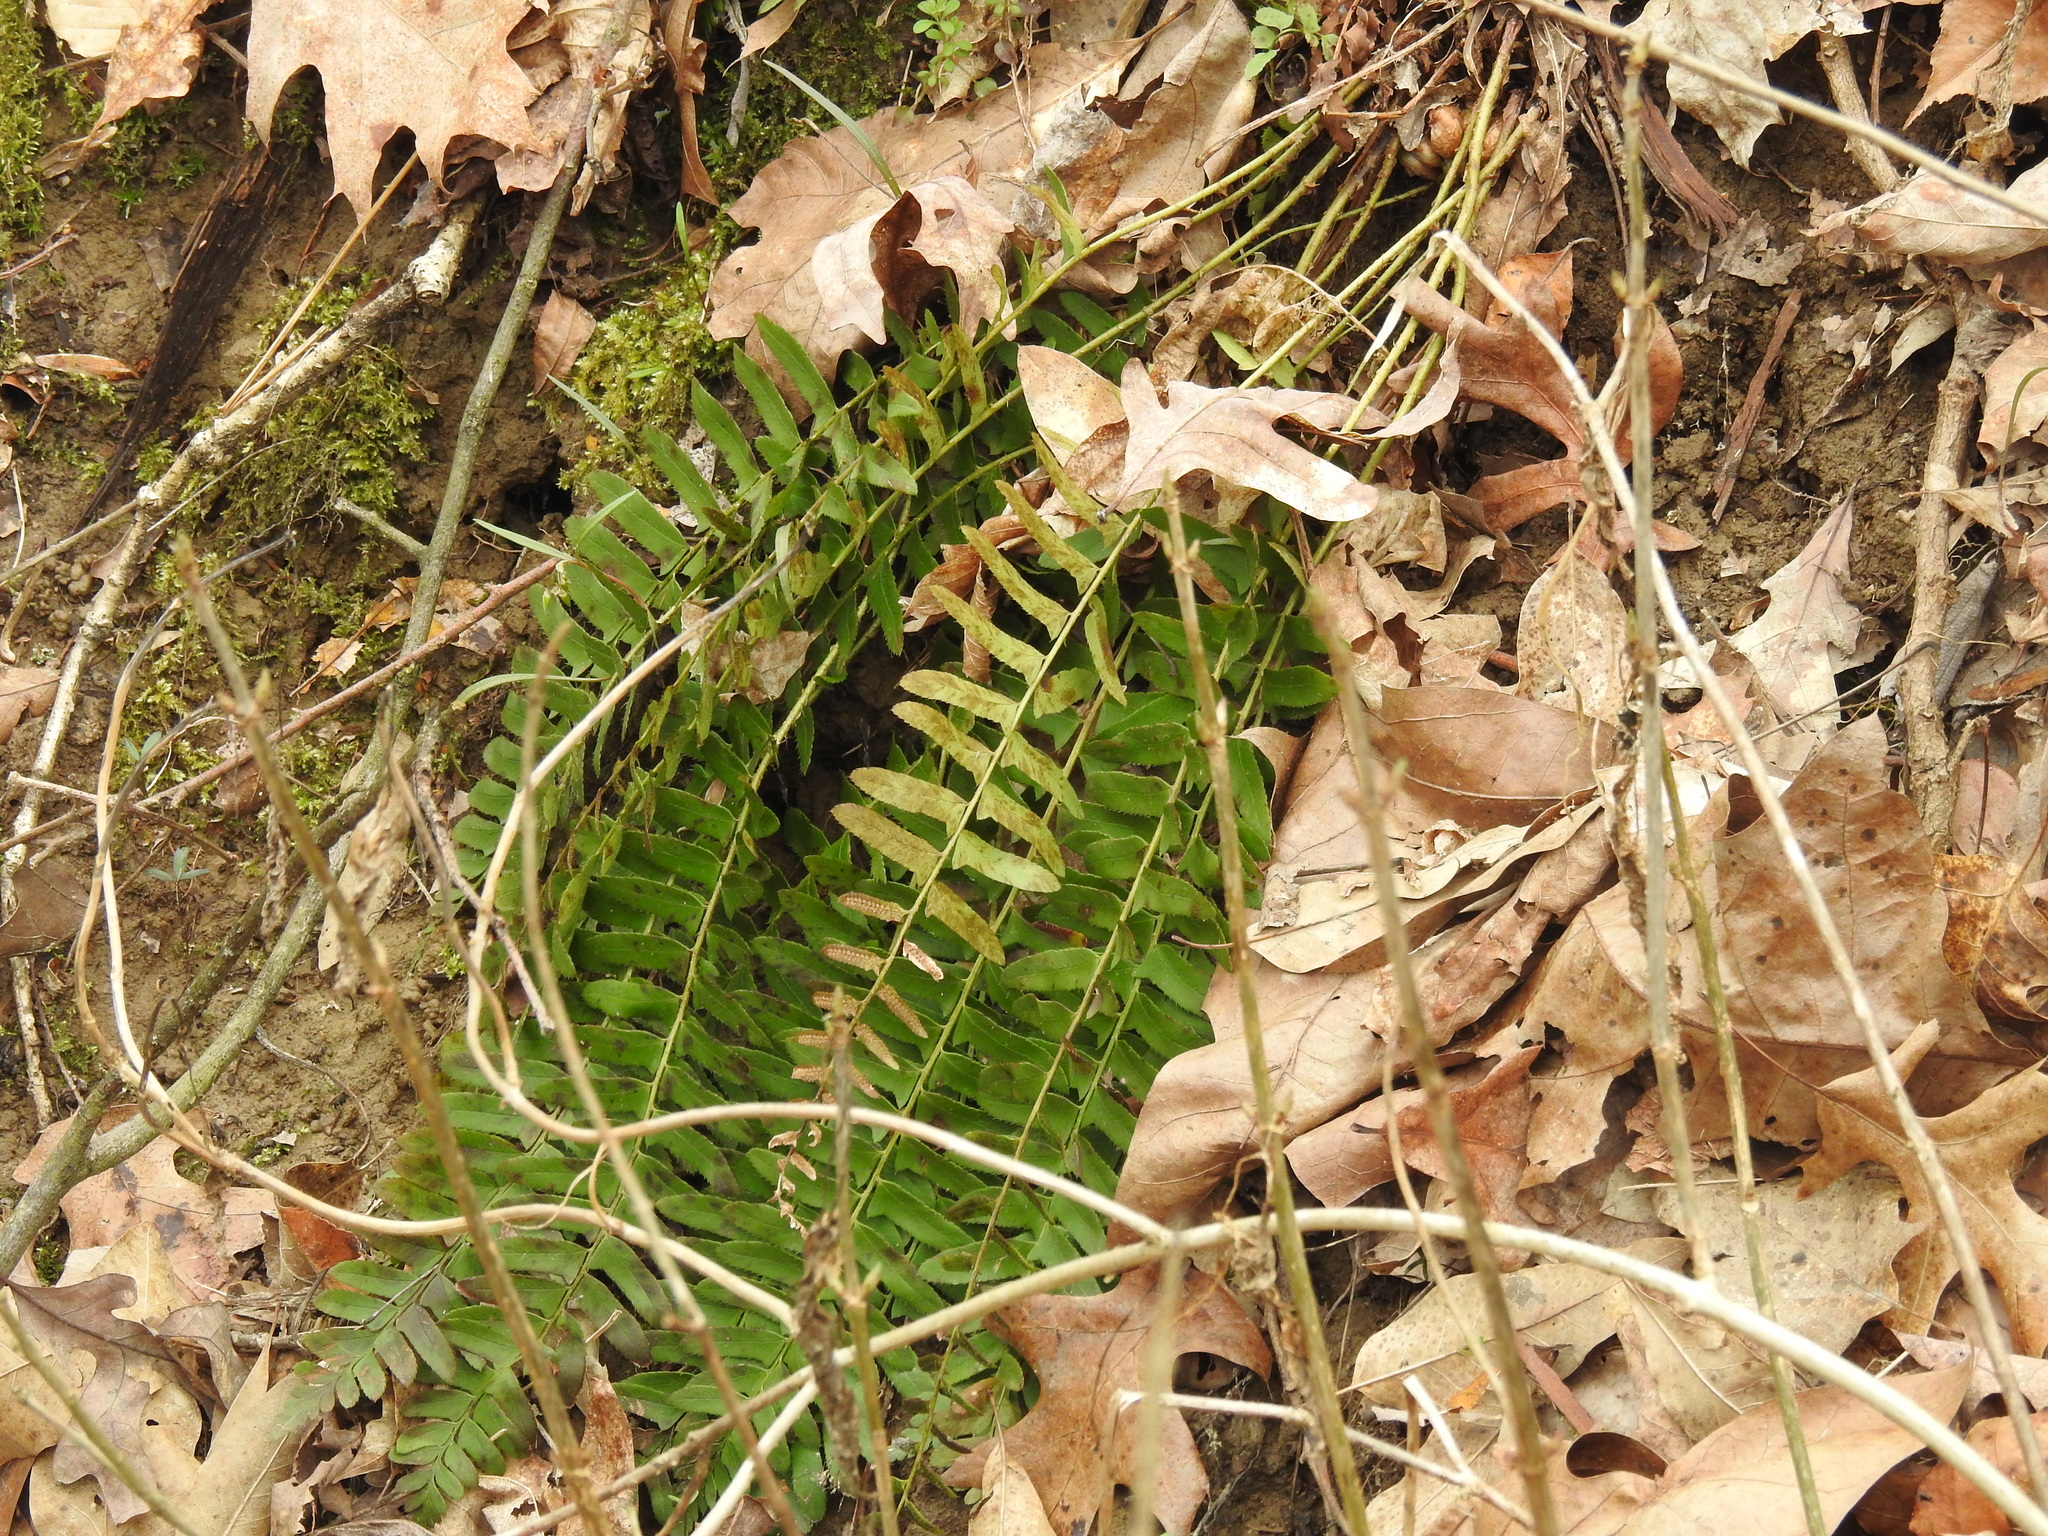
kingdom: Plantae
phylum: Tracheophyta
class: Polypodiopsida
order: Polypodiales
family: Dryopteridaceae
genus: Polystichum
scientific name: Polystichum acrostichoides
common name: Christmas fern
